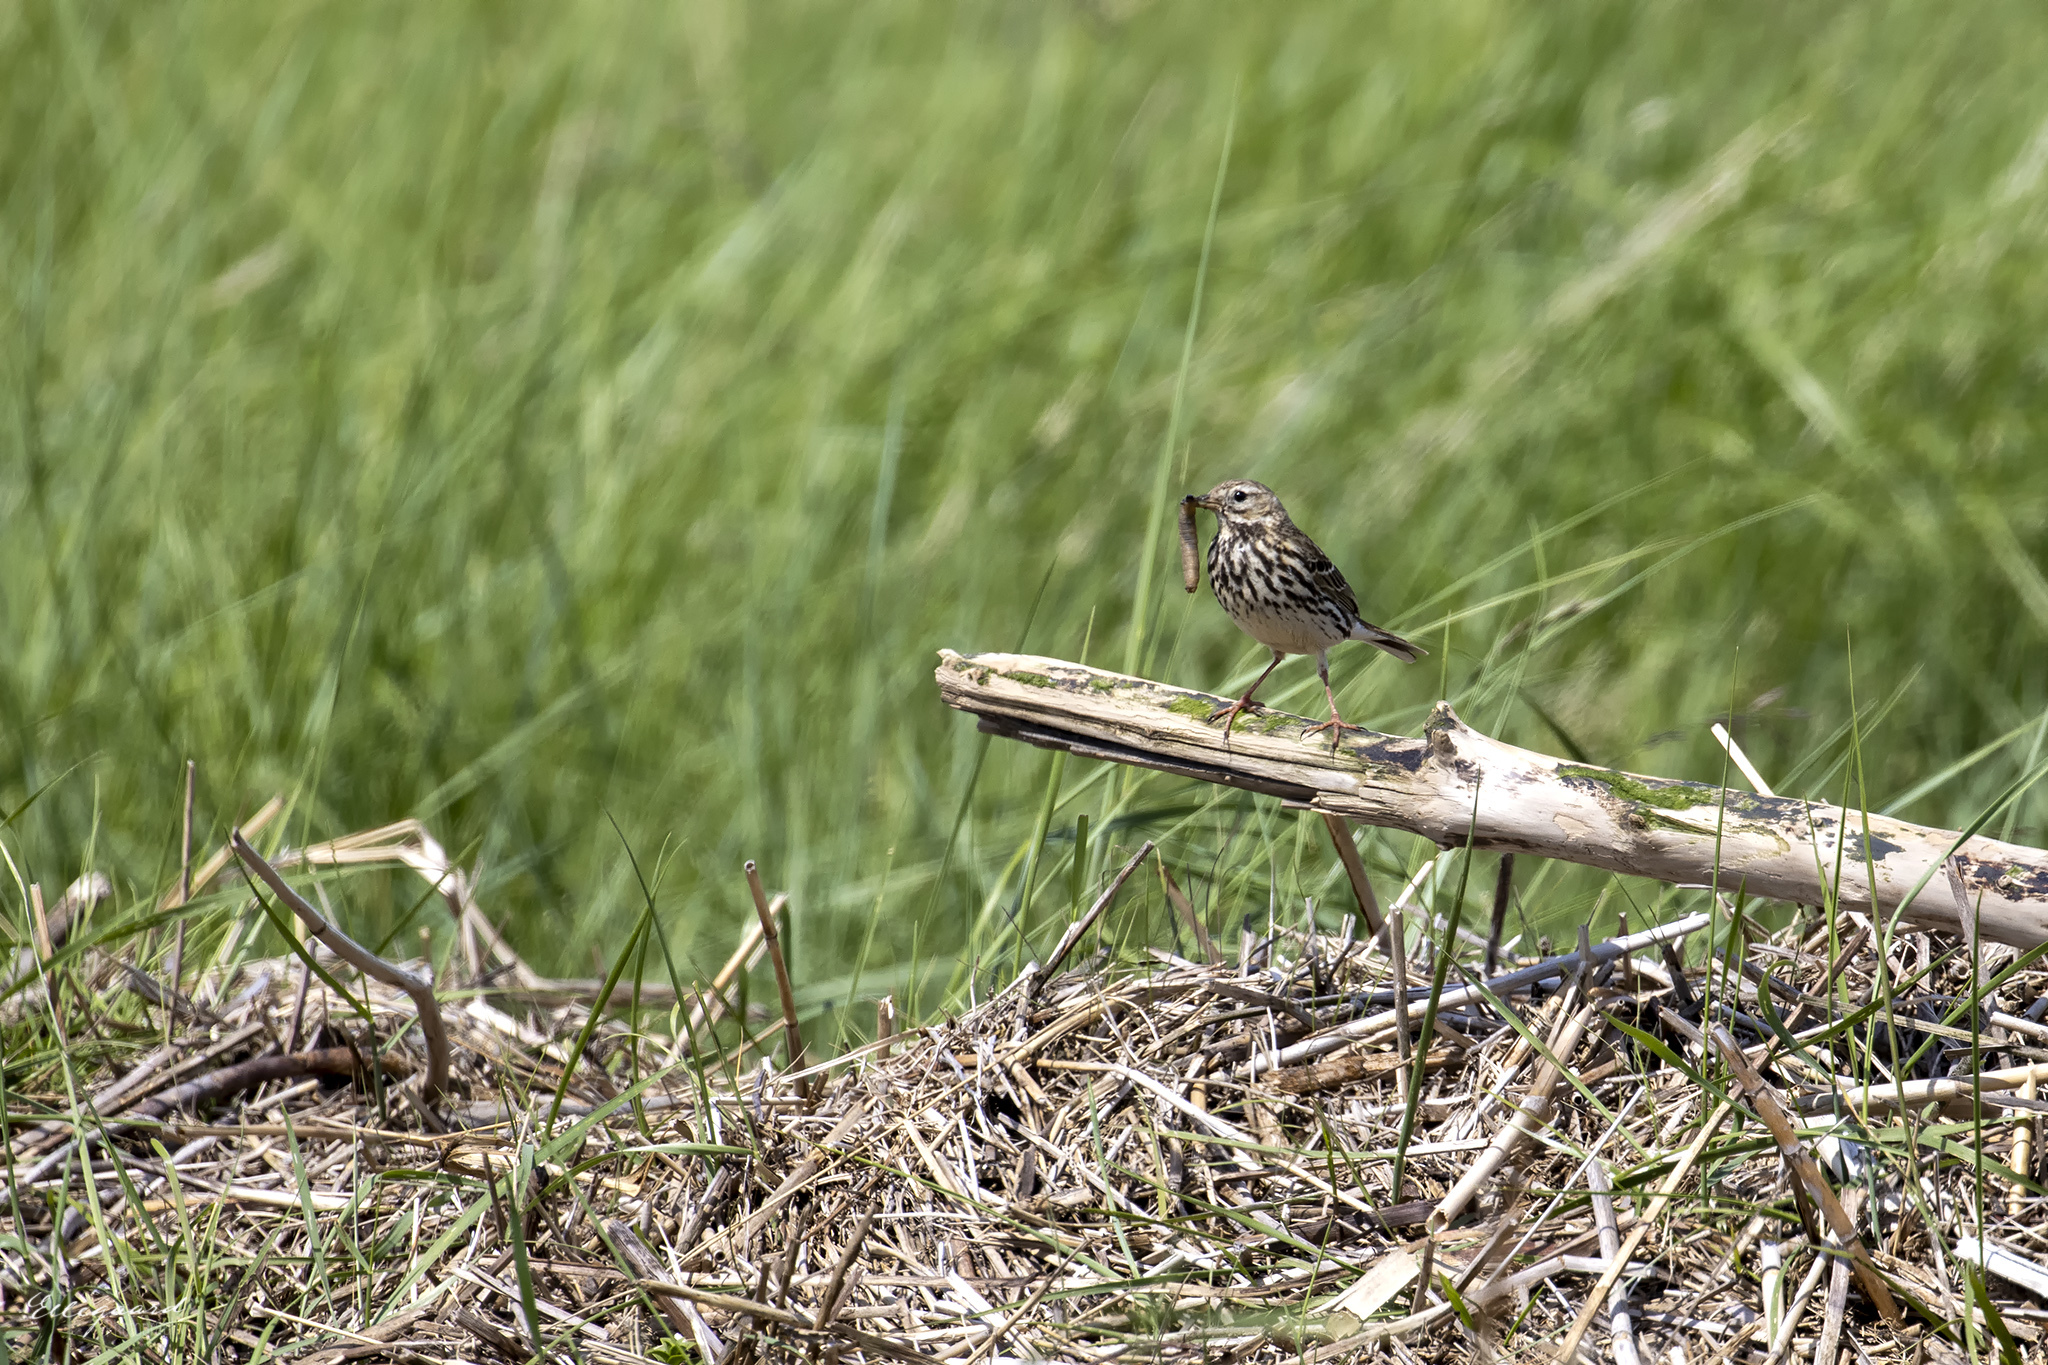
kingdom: Animalia
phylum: Chordata
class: Aves
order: Passeriformes
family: Motacillidae
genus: Anthus
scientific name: Anthus pratensis
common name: Meadow pipit
